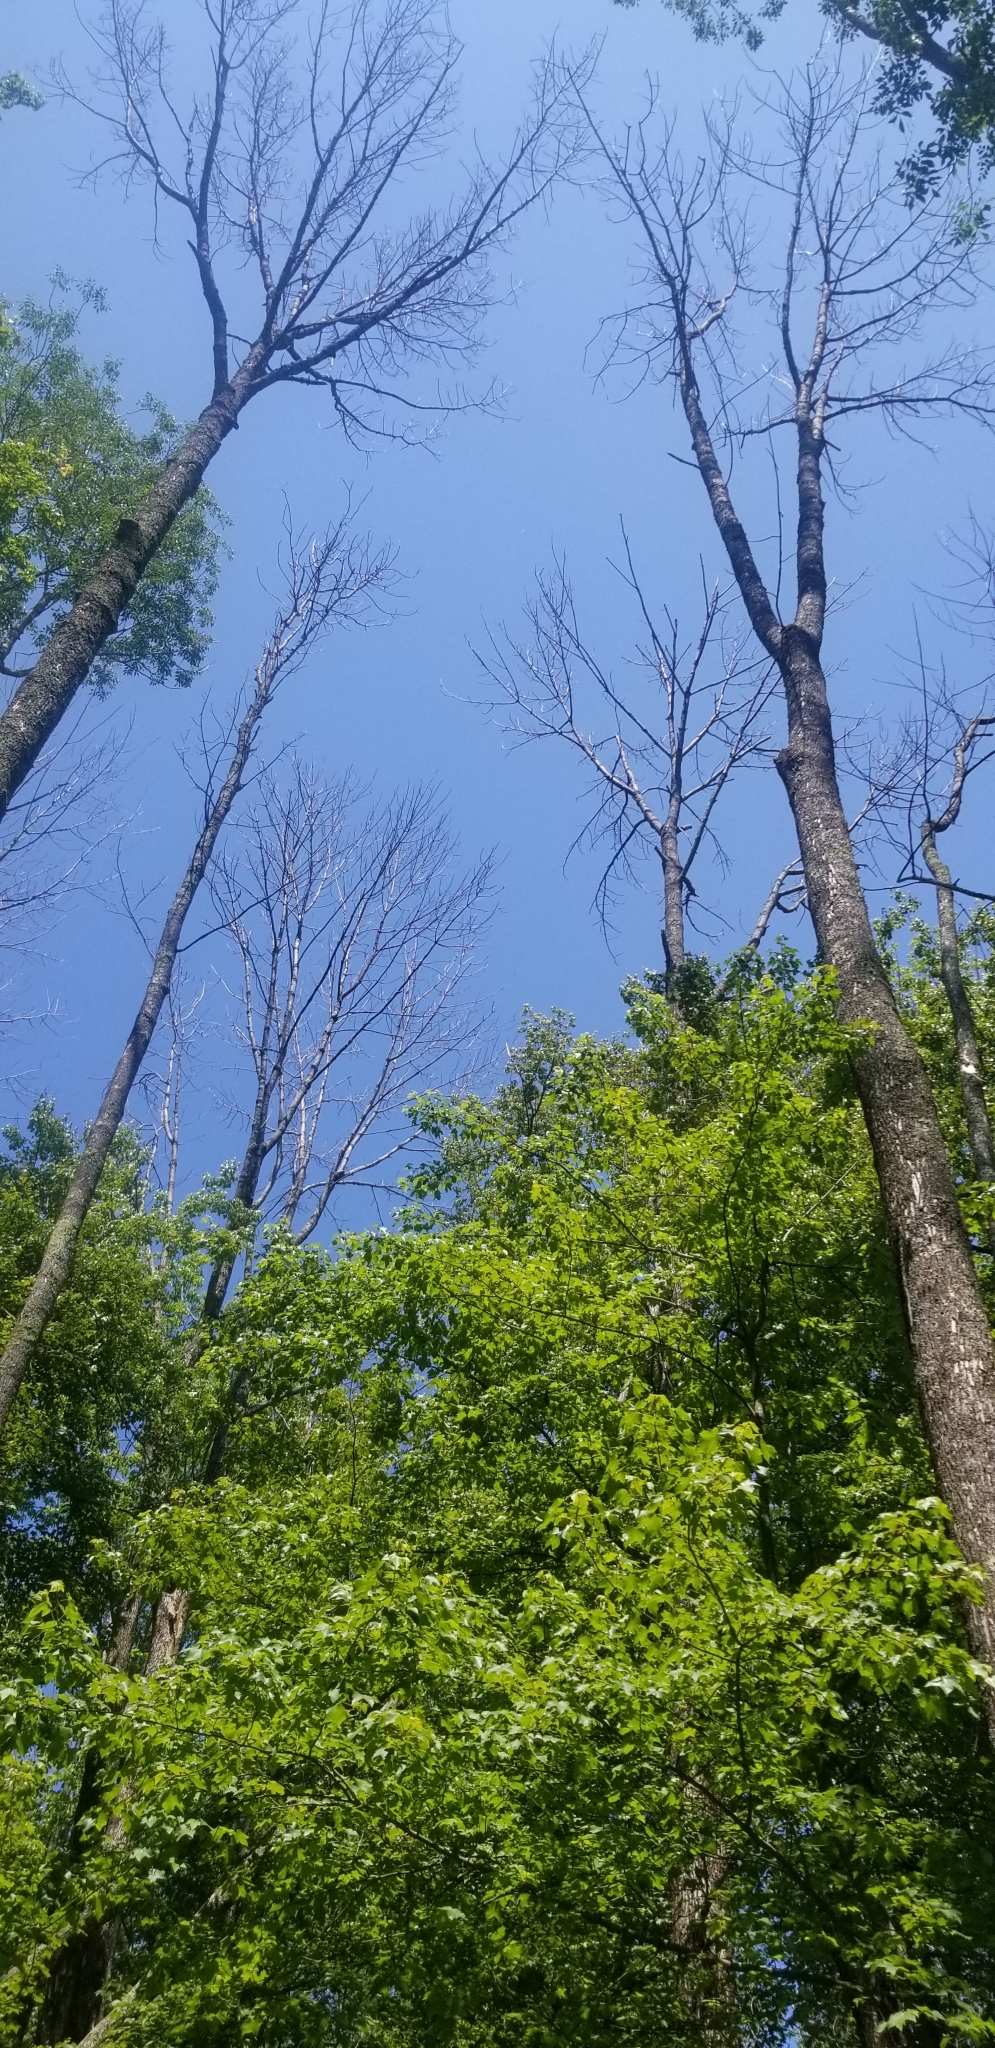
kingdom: Animalia
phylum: Arthropoda
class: Insecta
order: Coleoptera
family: Buprestidae
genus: Agrilus
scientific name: Agrilus planipennis
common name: Emerald ash borer
